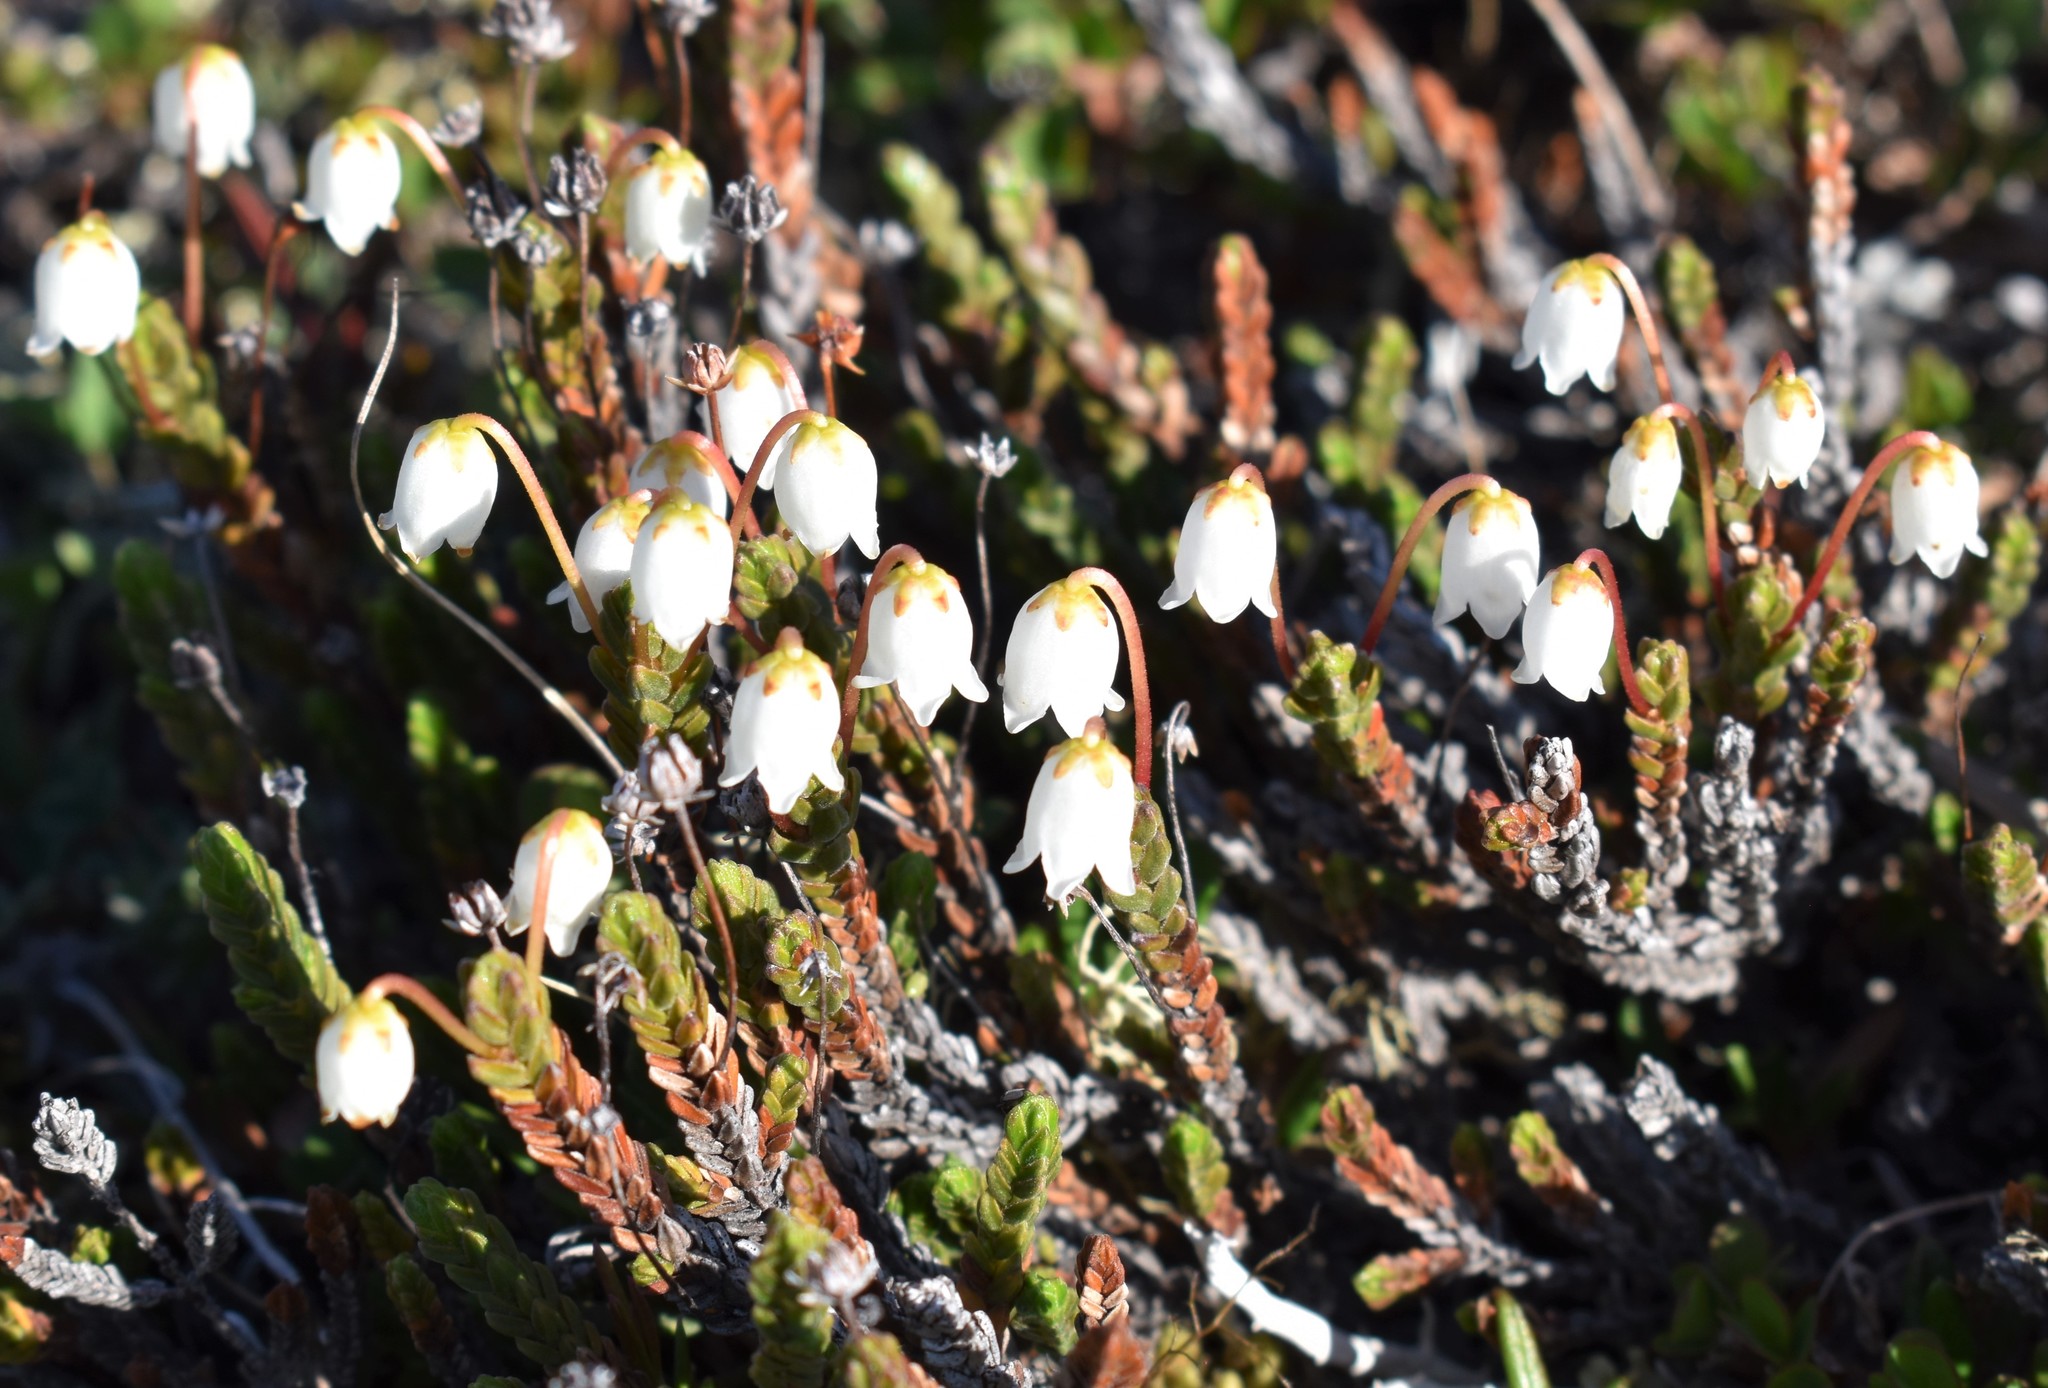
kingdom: Plantae
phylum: Tracheophyta
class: Magnoliopsida
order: Ericales
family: Ericaceae
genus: Cassiope
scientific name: Cassiope tetragona
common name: Arctic bell heather
